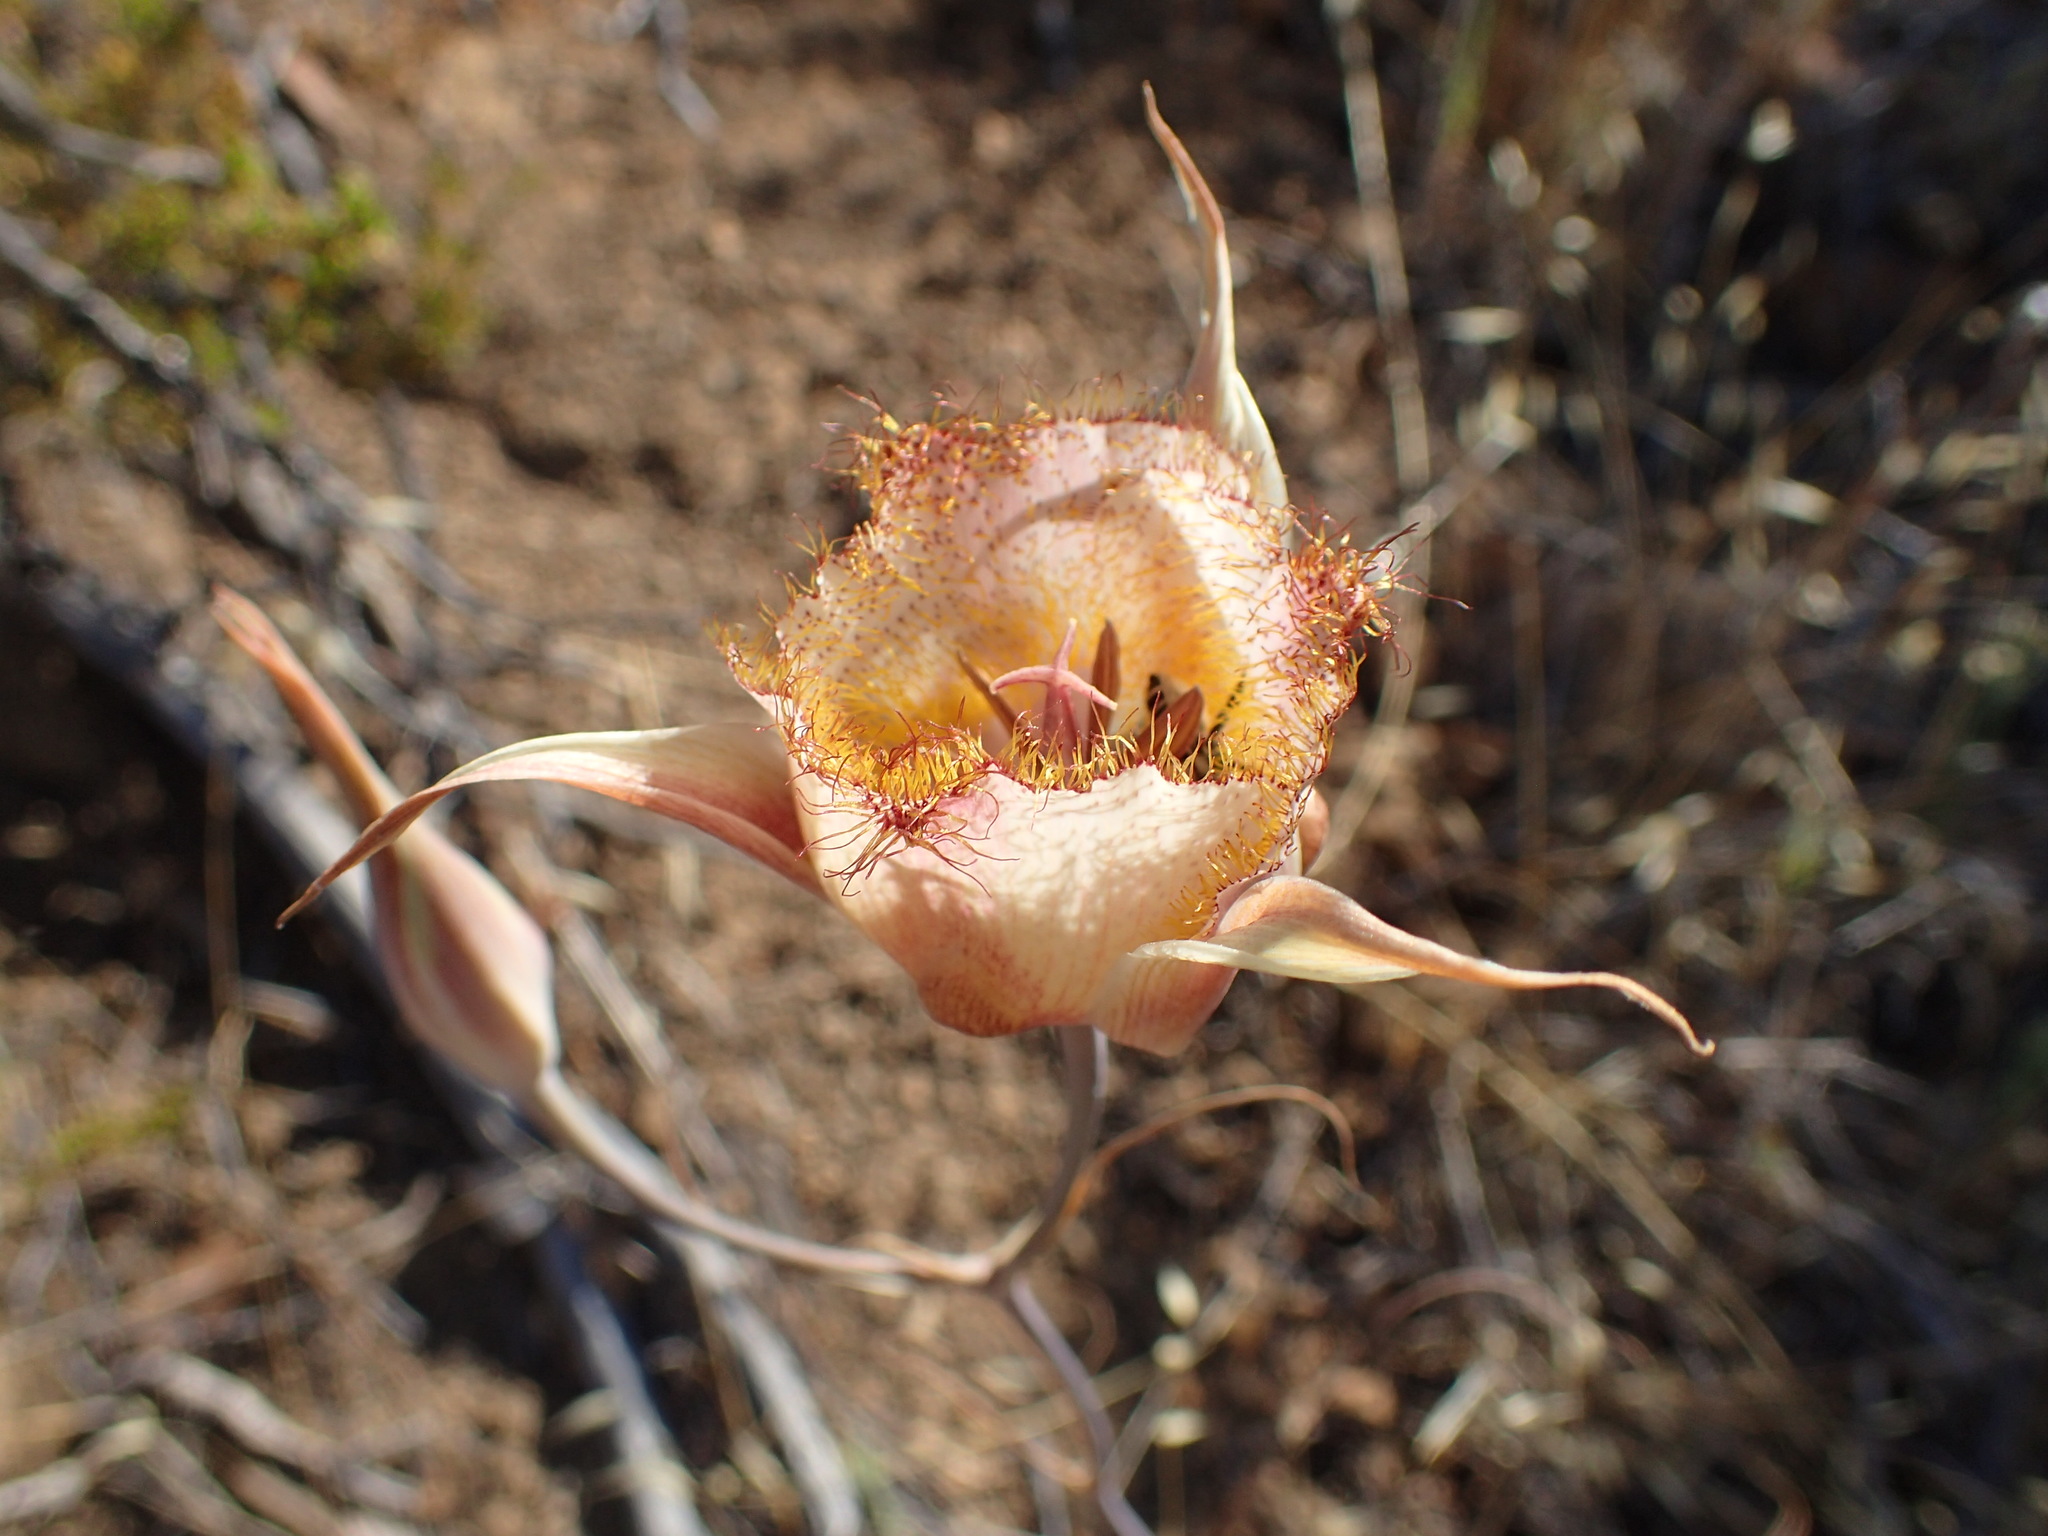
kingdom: Plantae
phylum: Tracheophyta
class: Liliopsida
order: Liliales
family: Liliaceae
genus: Calochortus
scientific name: Calochortus fimbriatus
